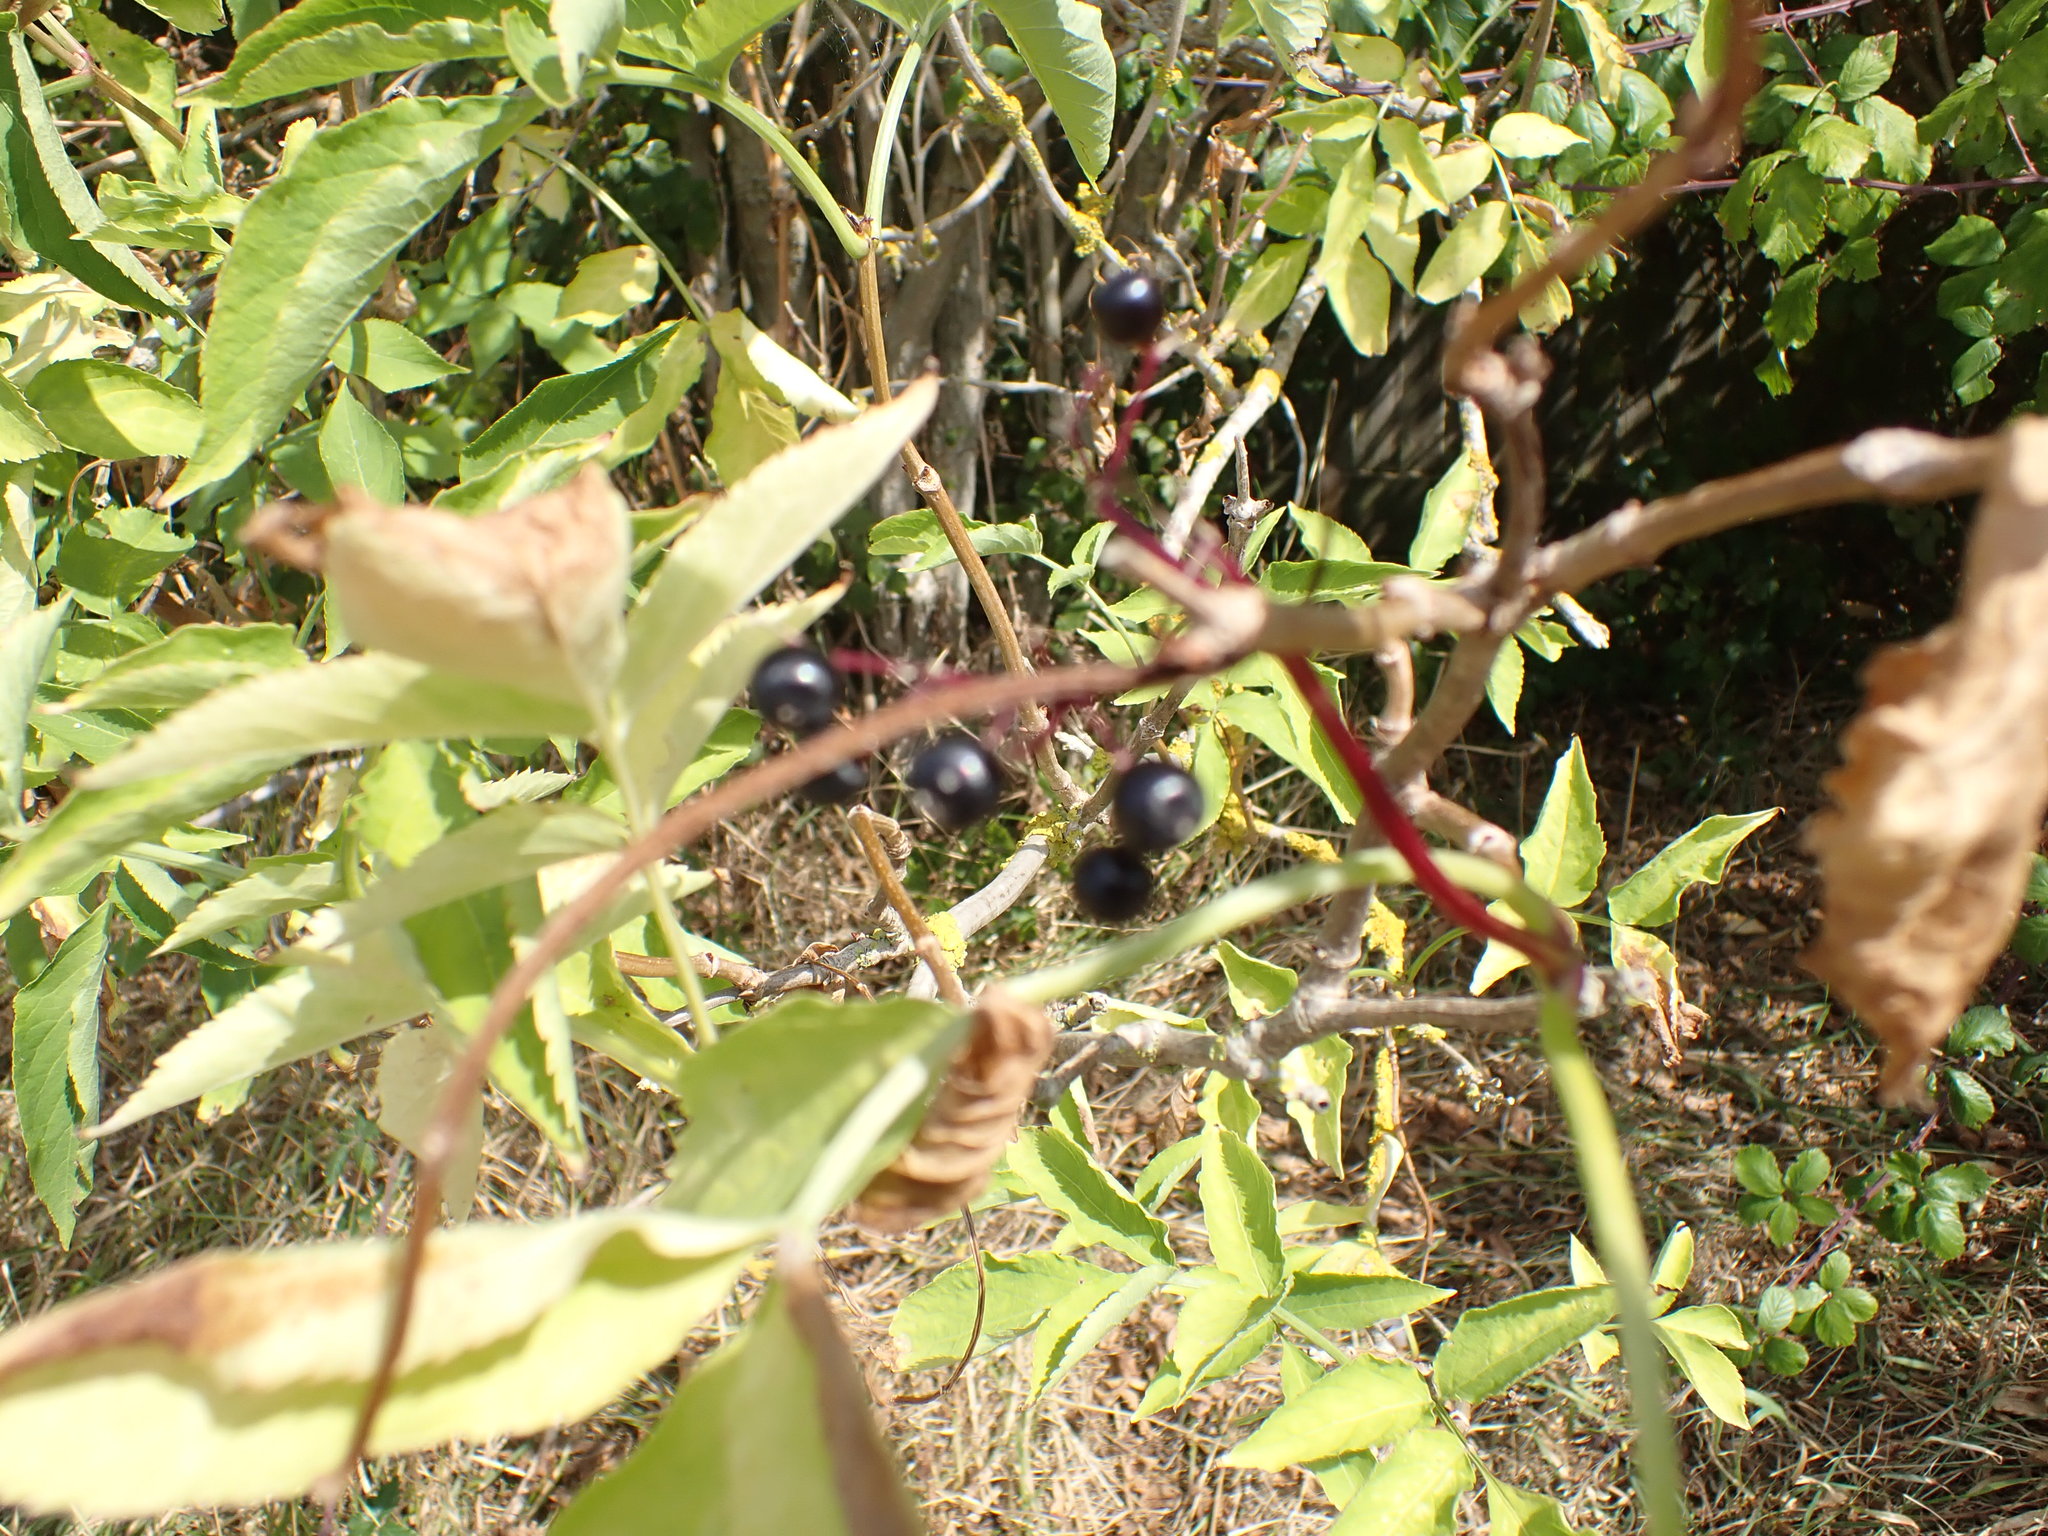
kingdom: Plantae
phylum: Tracheophyta
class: Magnoliopsida
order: Dipsacales
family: Viburnaceae
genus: Sambucus
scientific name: Sambucus nigra
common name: Elder
